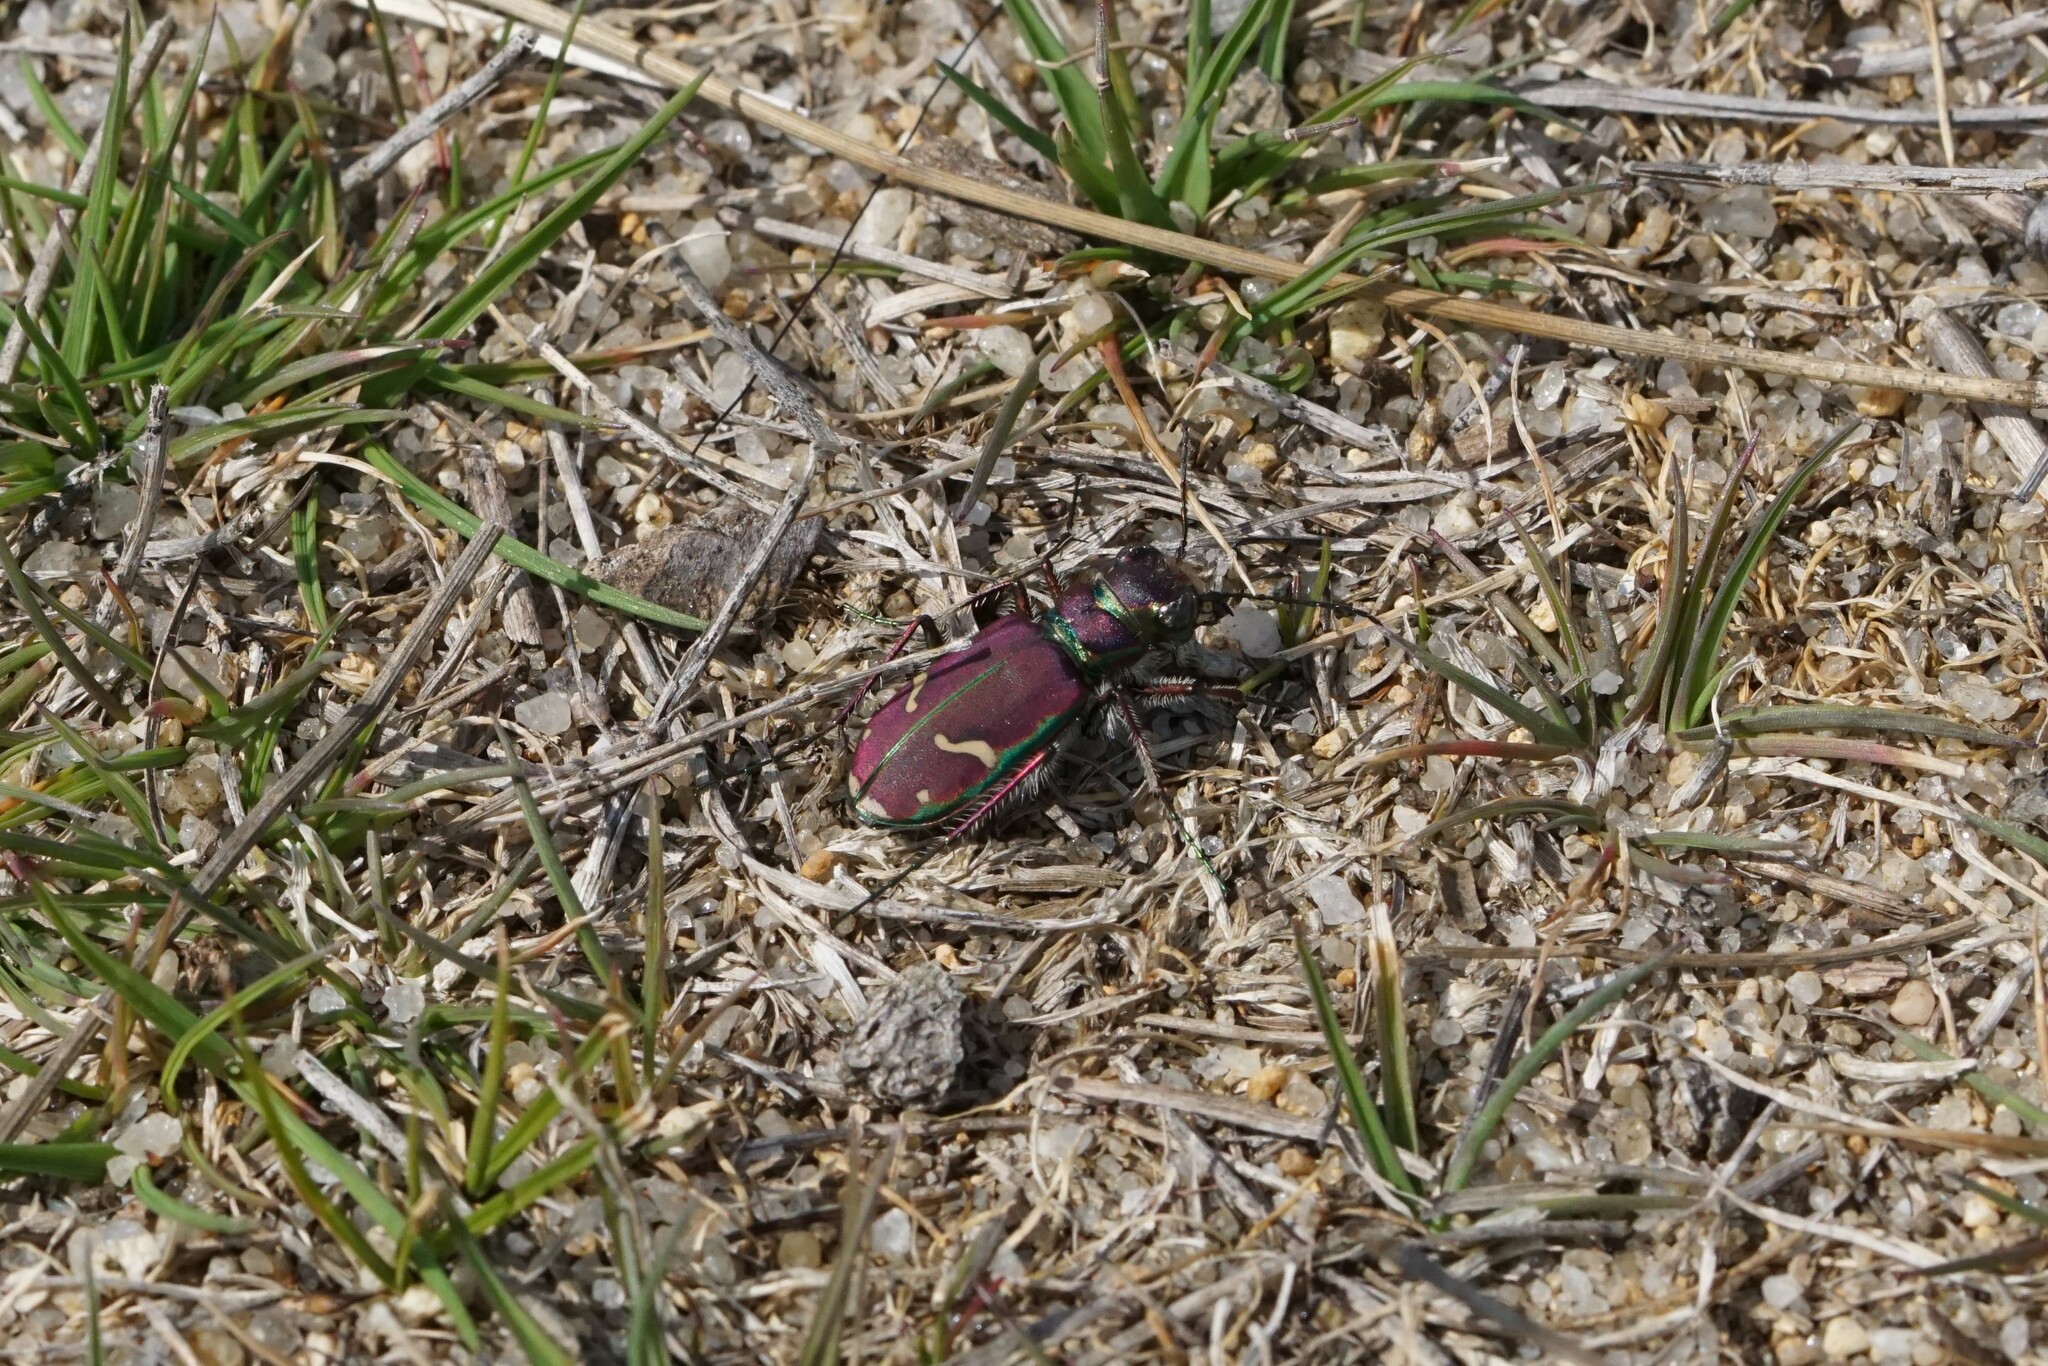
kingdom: Animalia
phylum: Arthropoda
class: Insecta
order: Coleoptera
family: Carabidae
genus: Cicindela
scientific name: Cicindela purpurea
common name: Cow path tiger beetle
